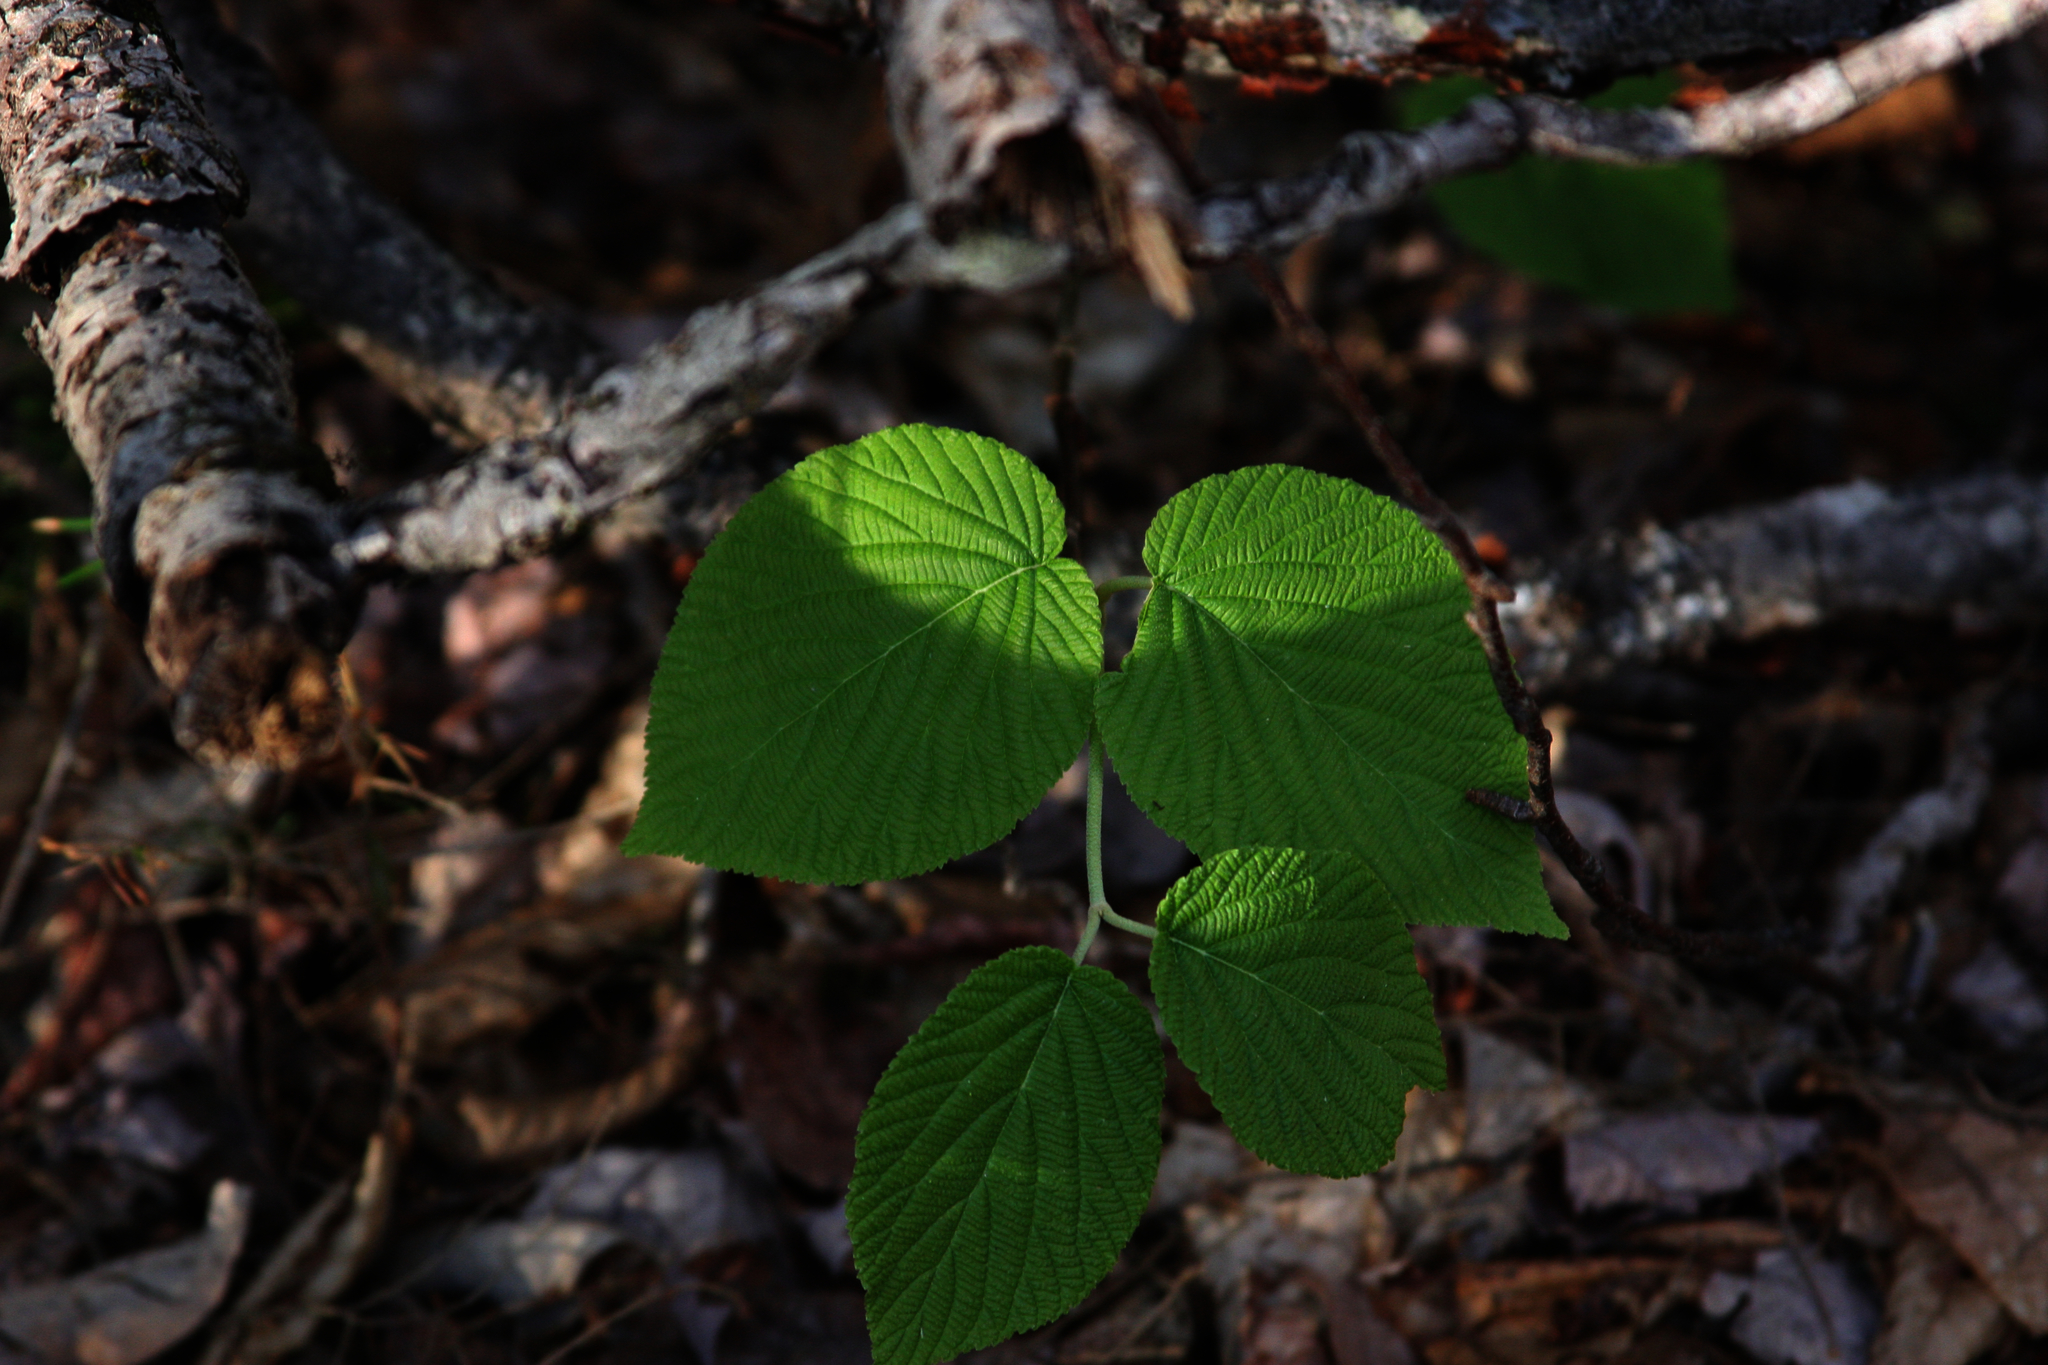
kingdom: Plantae
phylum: Tracheophyta
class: Magnoliopsida
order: Dipsacales
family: Viburnaceae
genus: Viburnum
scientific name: Viburnum lantanoides
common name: Hobblebush
